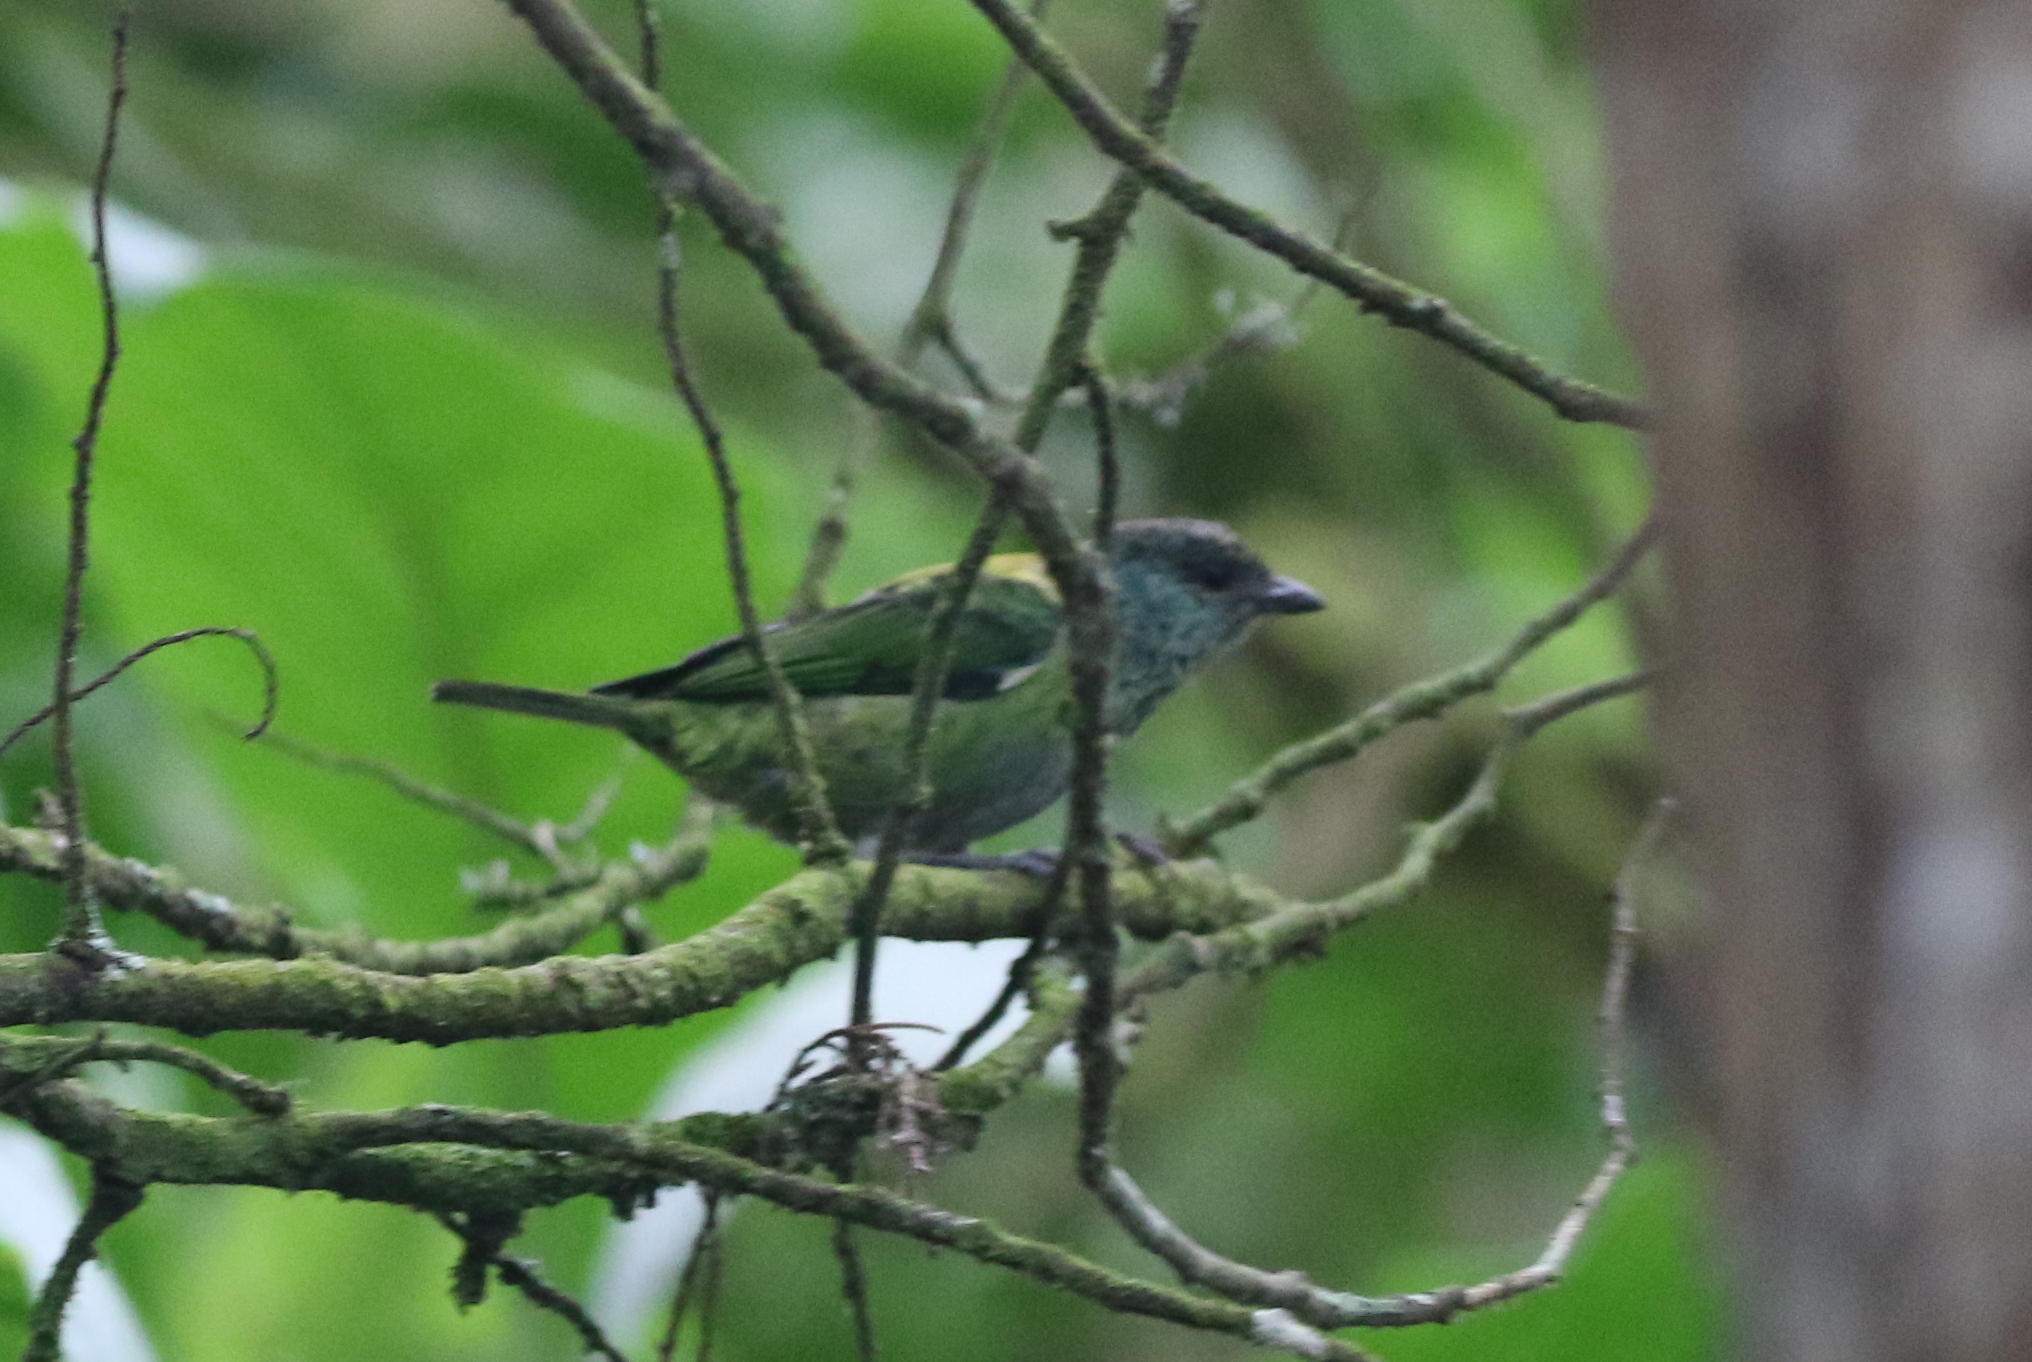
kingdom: Animalia
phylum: Chordata
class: Aves
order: Passeriformes
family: Thraupidae
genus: Stilpnia
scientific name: Stilpnia heinei
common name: Black-capped tanager
